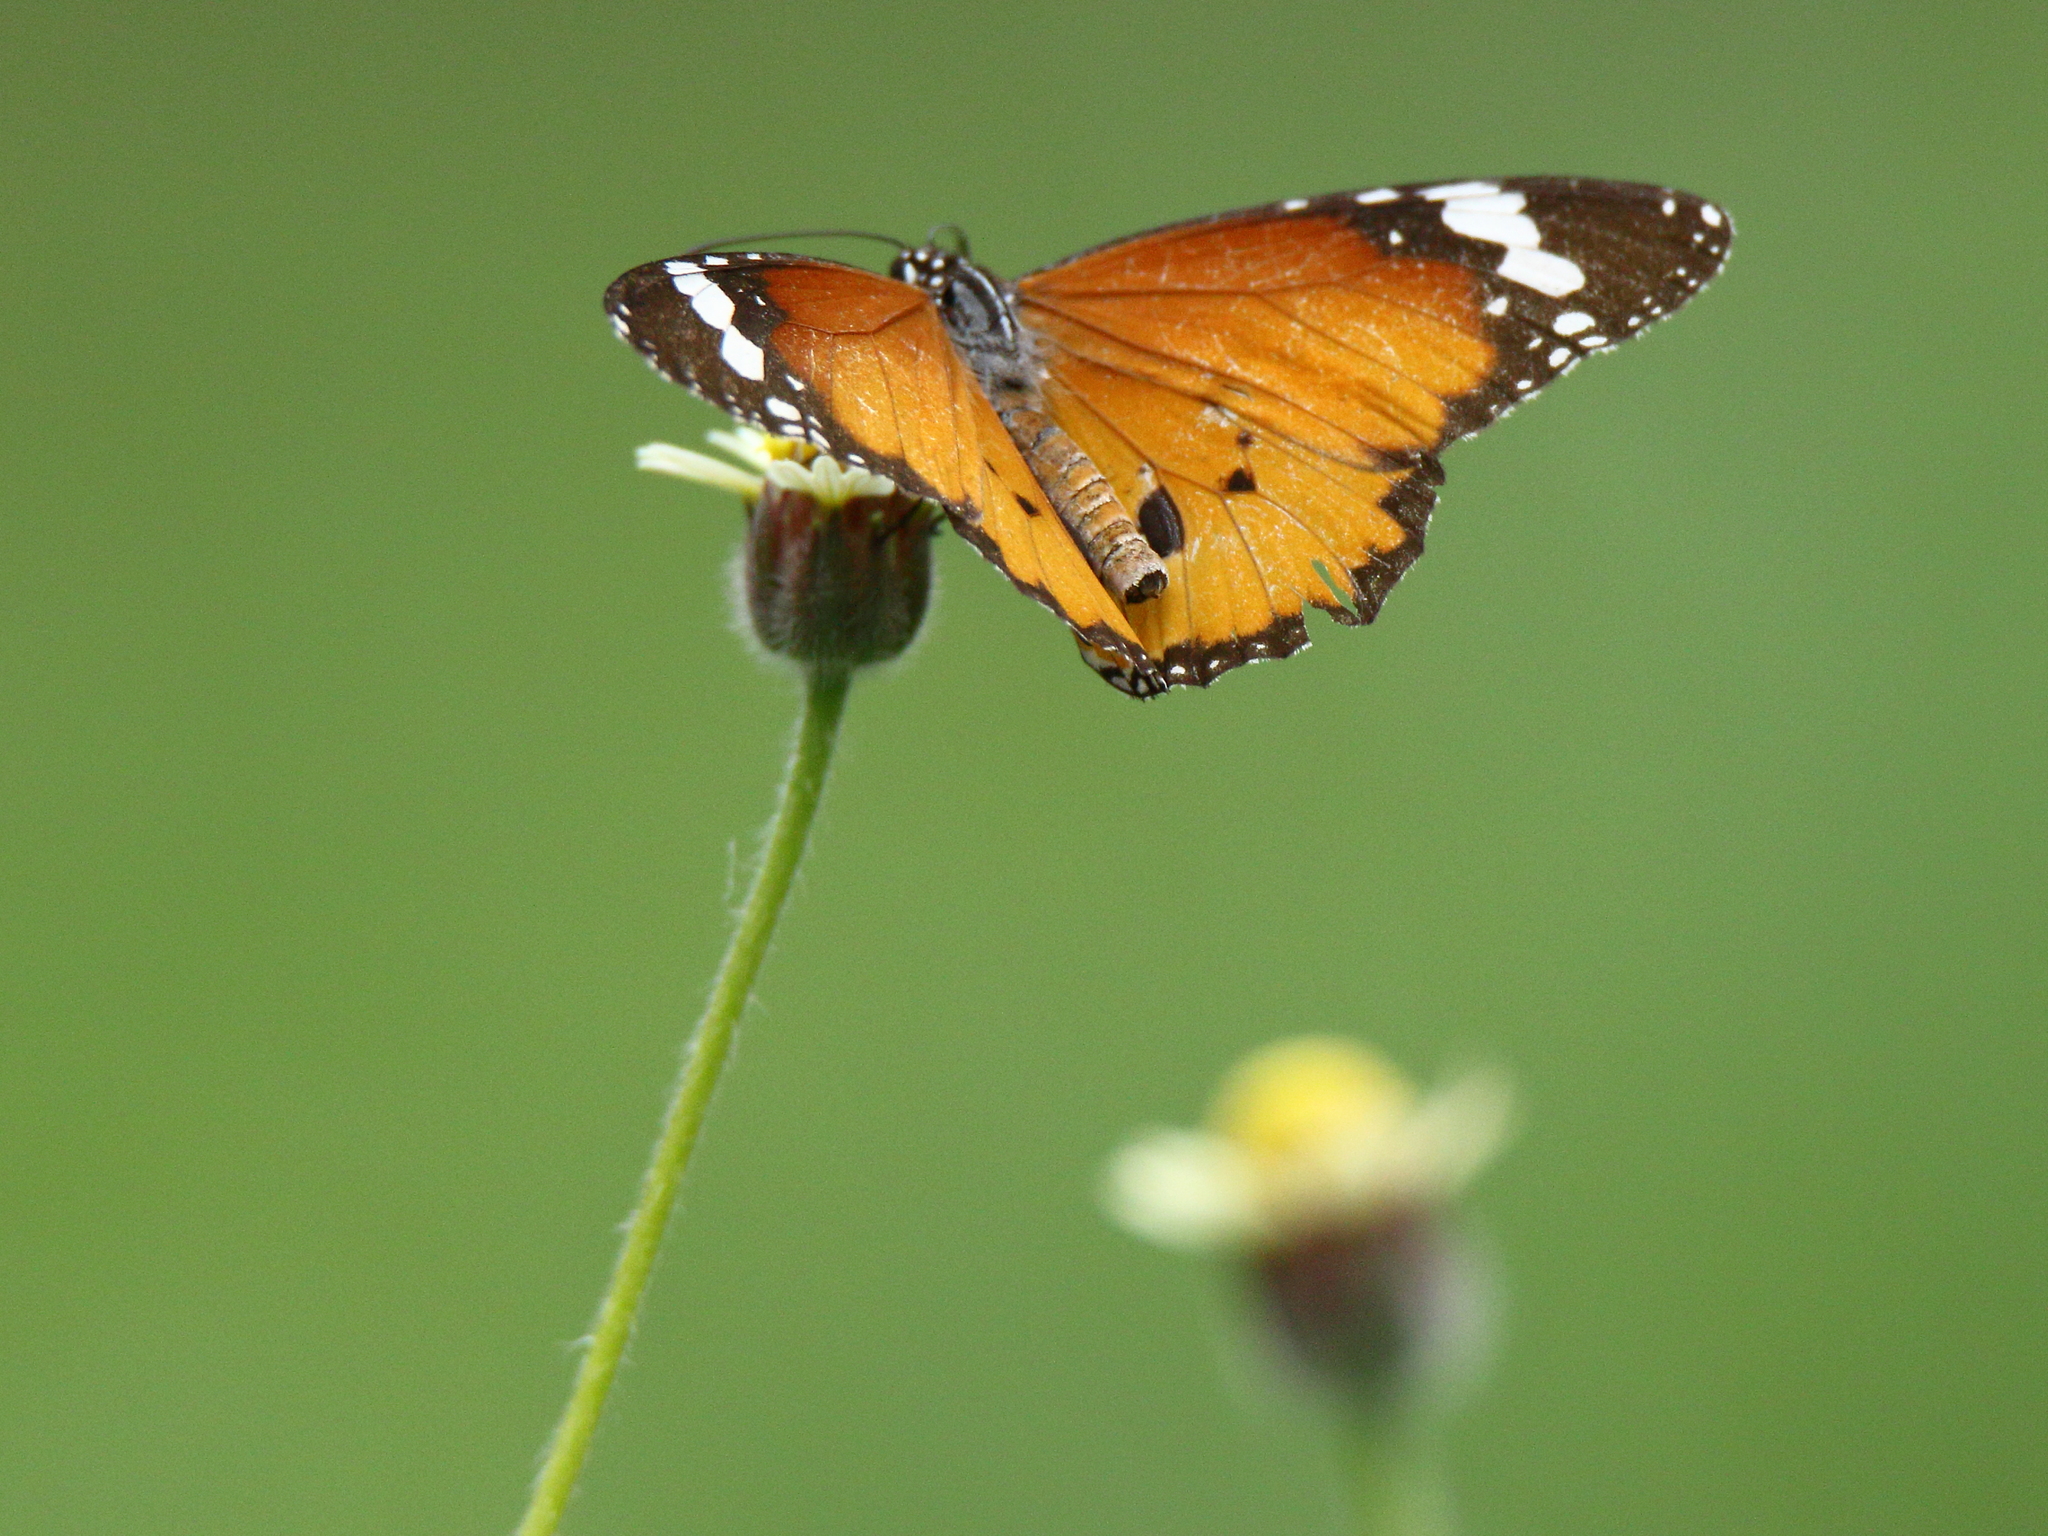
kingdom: Animalia
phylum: Arthropoda
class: Insecta
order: Lepidoptera
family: Nymphalidae
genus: Danaus
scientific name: Danaus chrysippus
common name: Plain tiger
